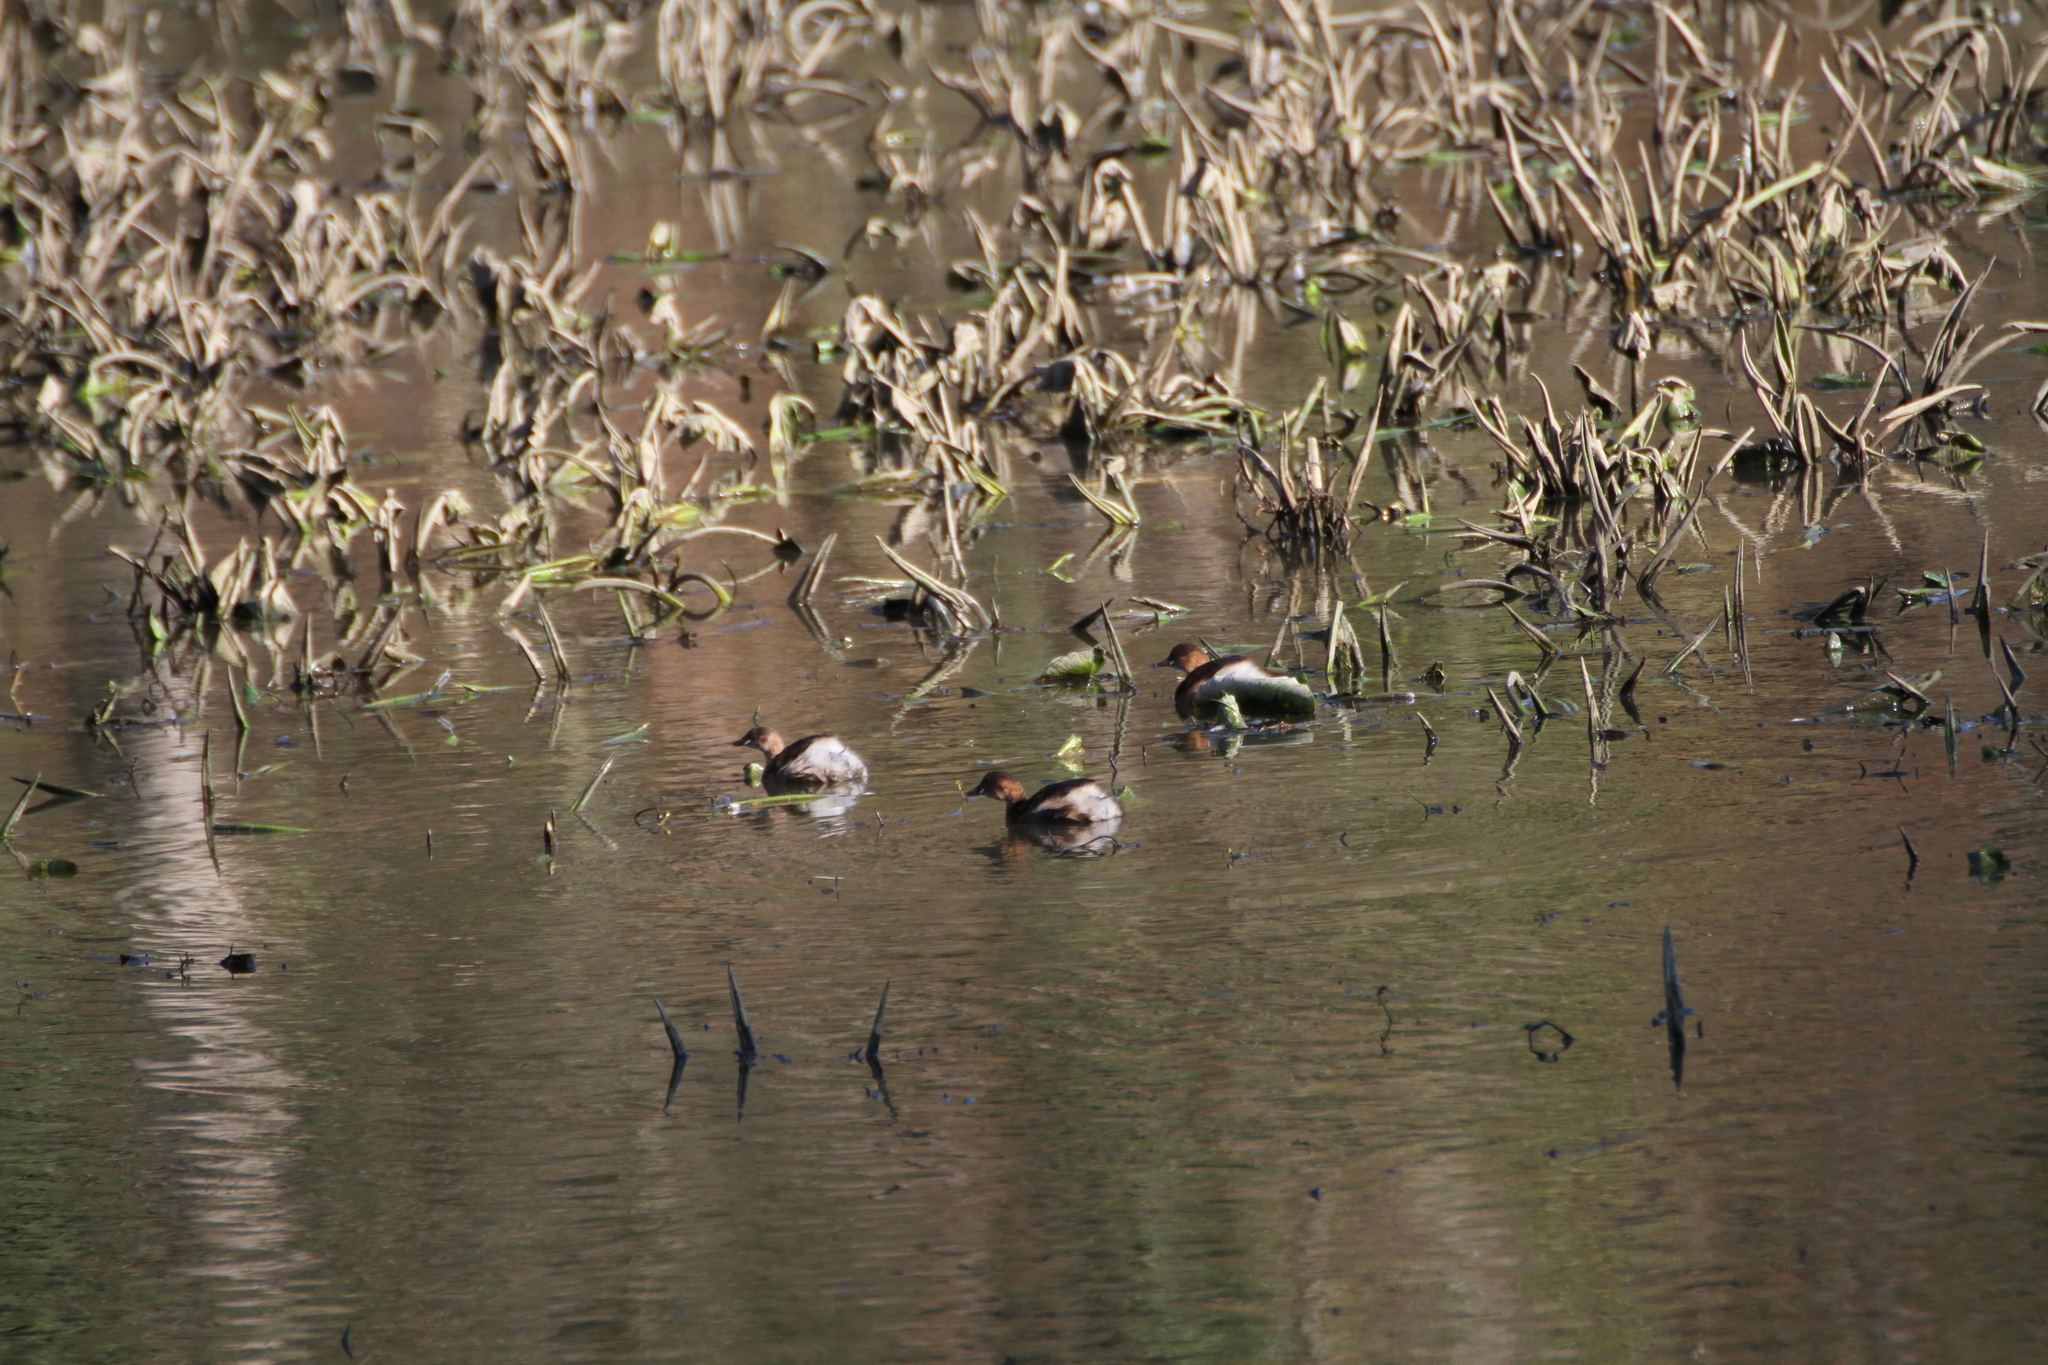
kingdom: Animalia
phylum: Chordata
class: Aves
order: Podicipediformes
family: Podicipedidae
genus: Tachybaptus
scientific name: Tachybaptus ruficollis
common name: Little grebe
